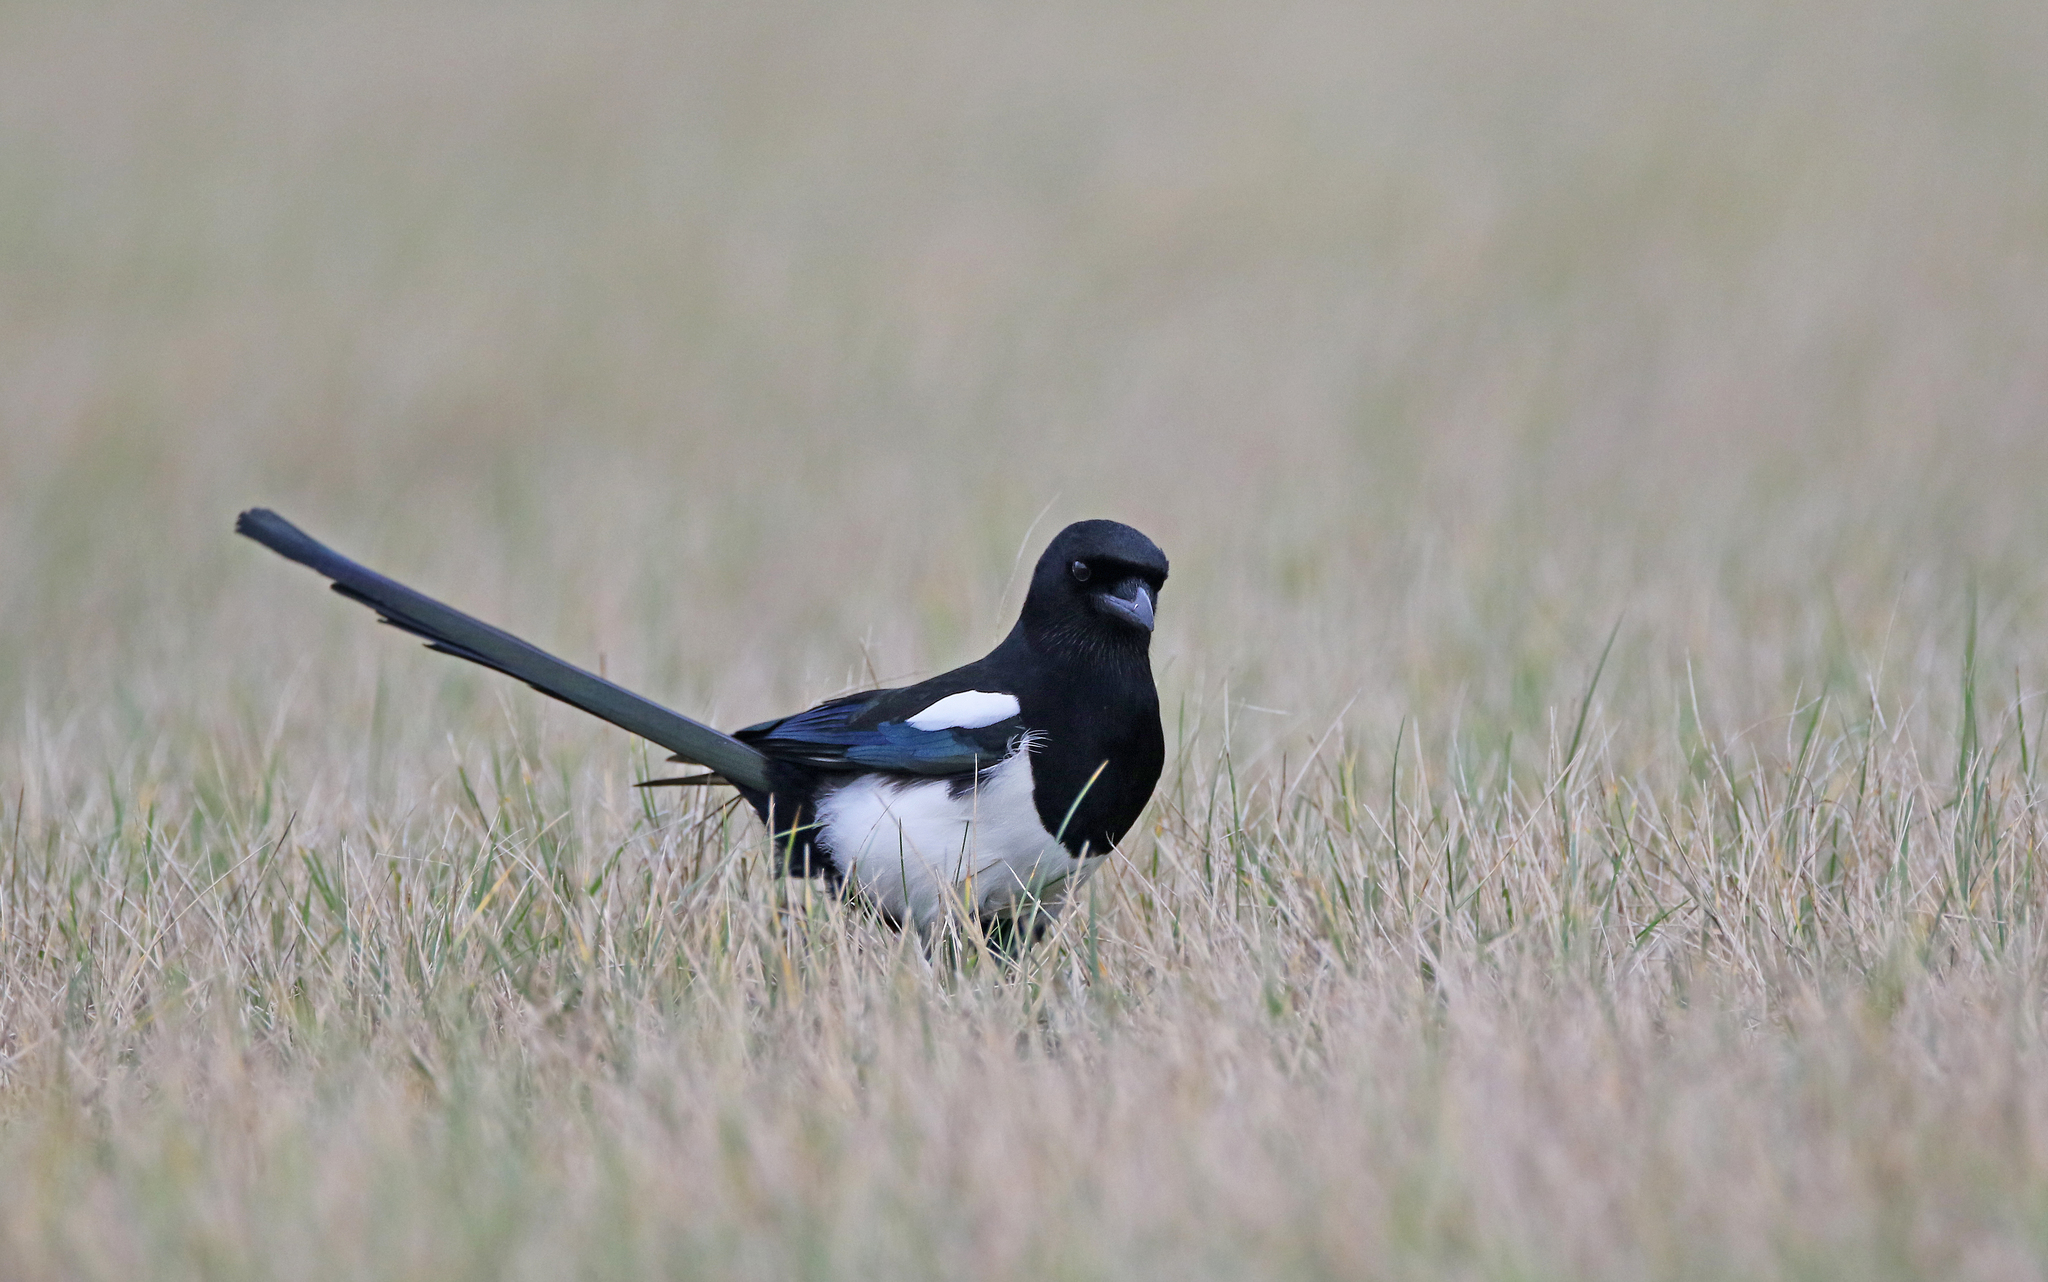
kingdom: Animalia
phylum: Chordata
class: Aves
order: Passeriformes
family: Corvidae
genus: Pica
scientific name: Pica pica
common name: Eurasian magpie
